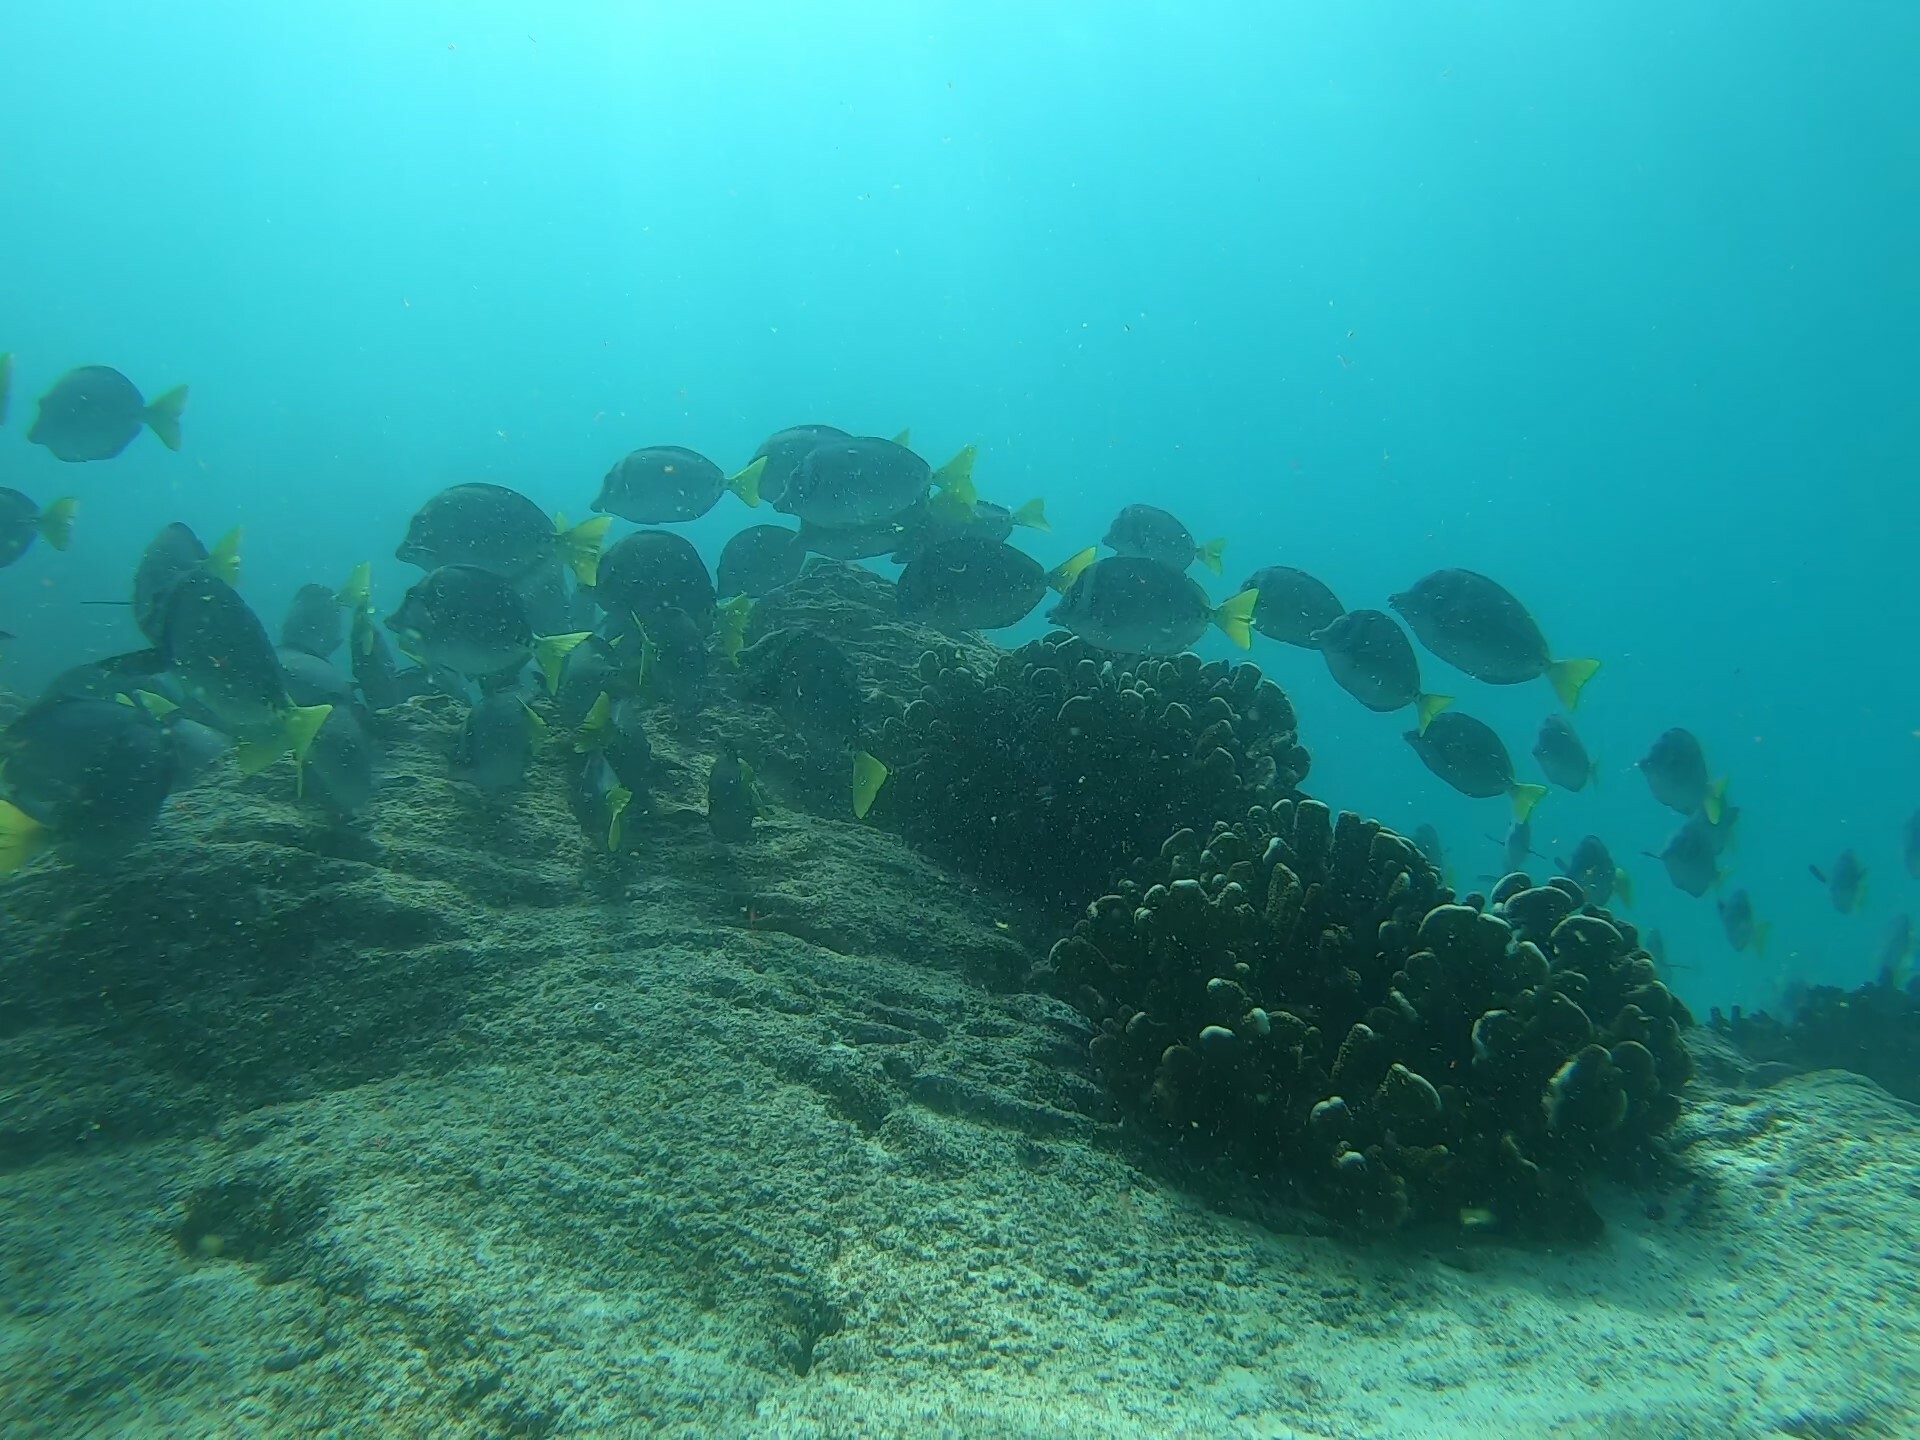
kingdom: Animalia
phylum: Chordata
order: Perciformes
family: Acanthuridae
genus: Prionurus
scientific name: Prionurus laticlavius
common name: Razor surgeonfish
